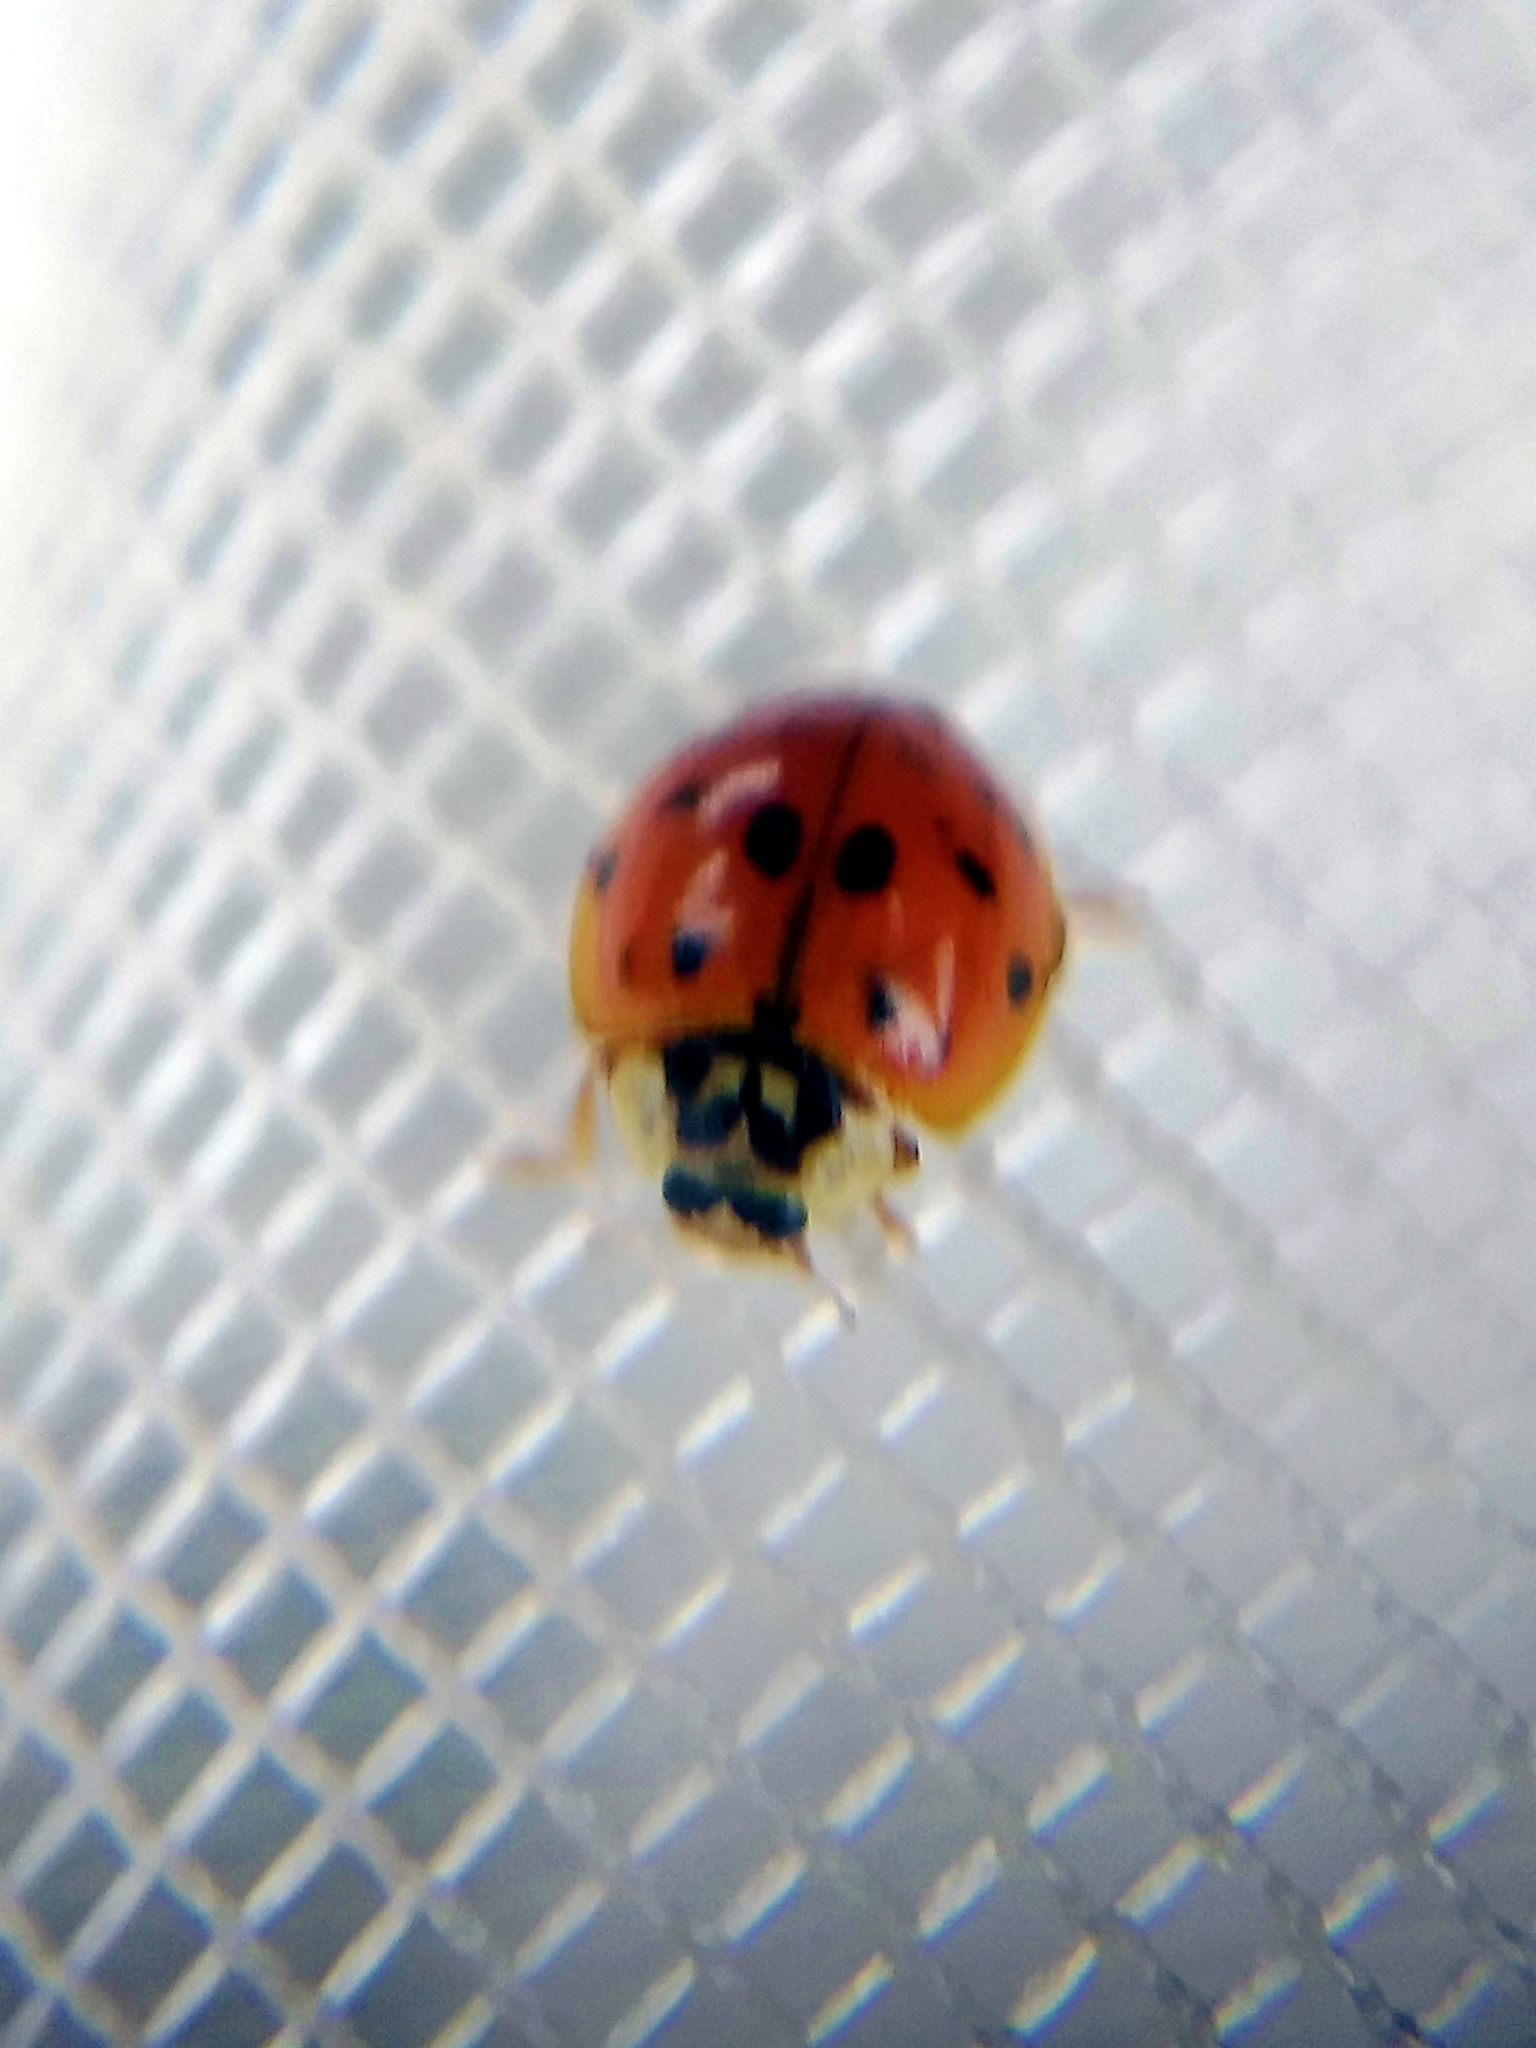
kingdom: Animalia
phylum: Arthropoda
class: Insecta
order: Coleoptera
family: Coccinellidae
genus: Harmonia
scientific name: Harmonia axyridis
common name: Harlequin ladybird
